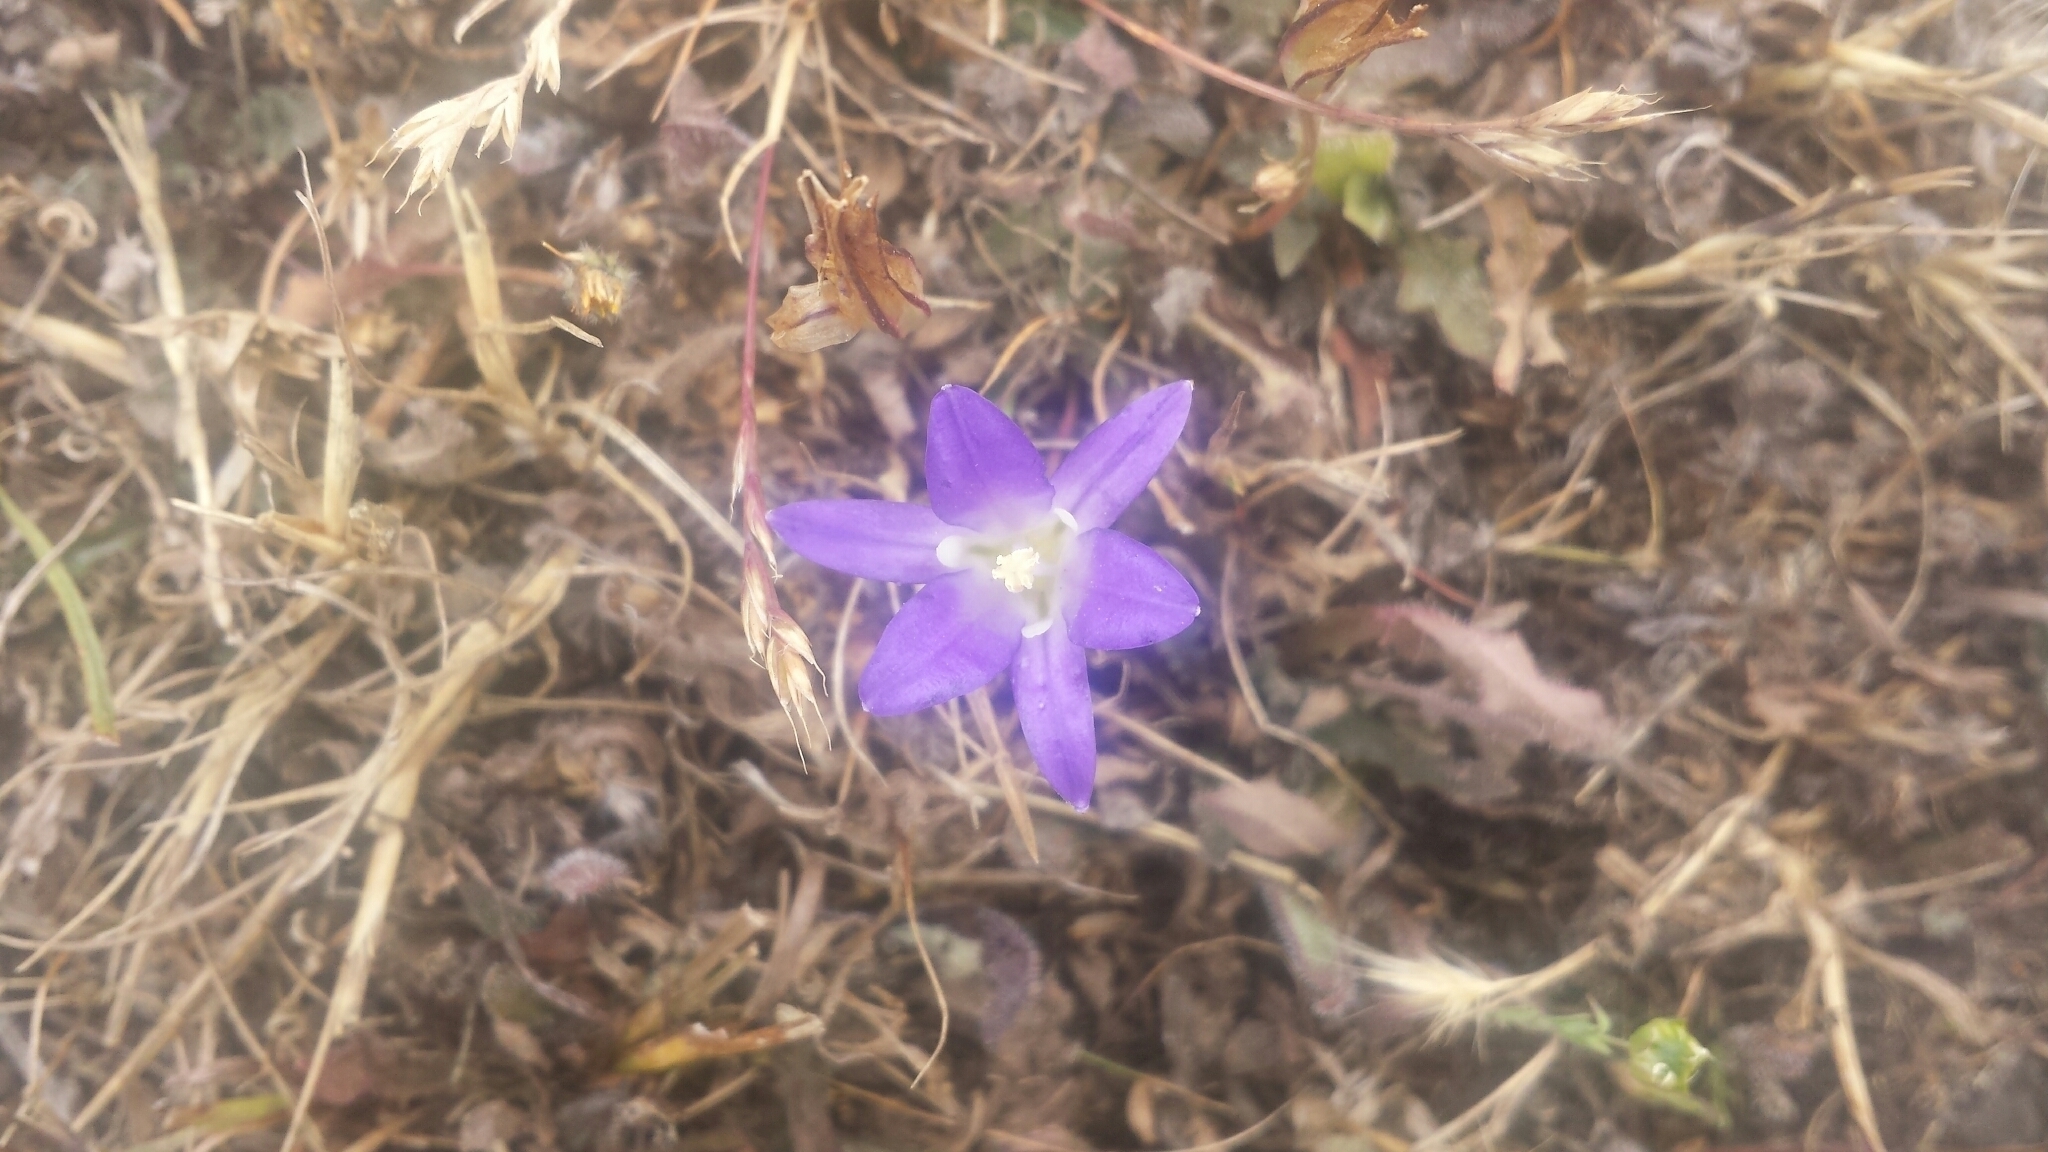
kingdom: Plantae
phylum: Tracheophyta
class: Liliopsida
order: Asparagales
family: Asparagaceae
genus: Brodiaea
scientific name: Brodiaea elegans
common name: Elegant cluster-lily
